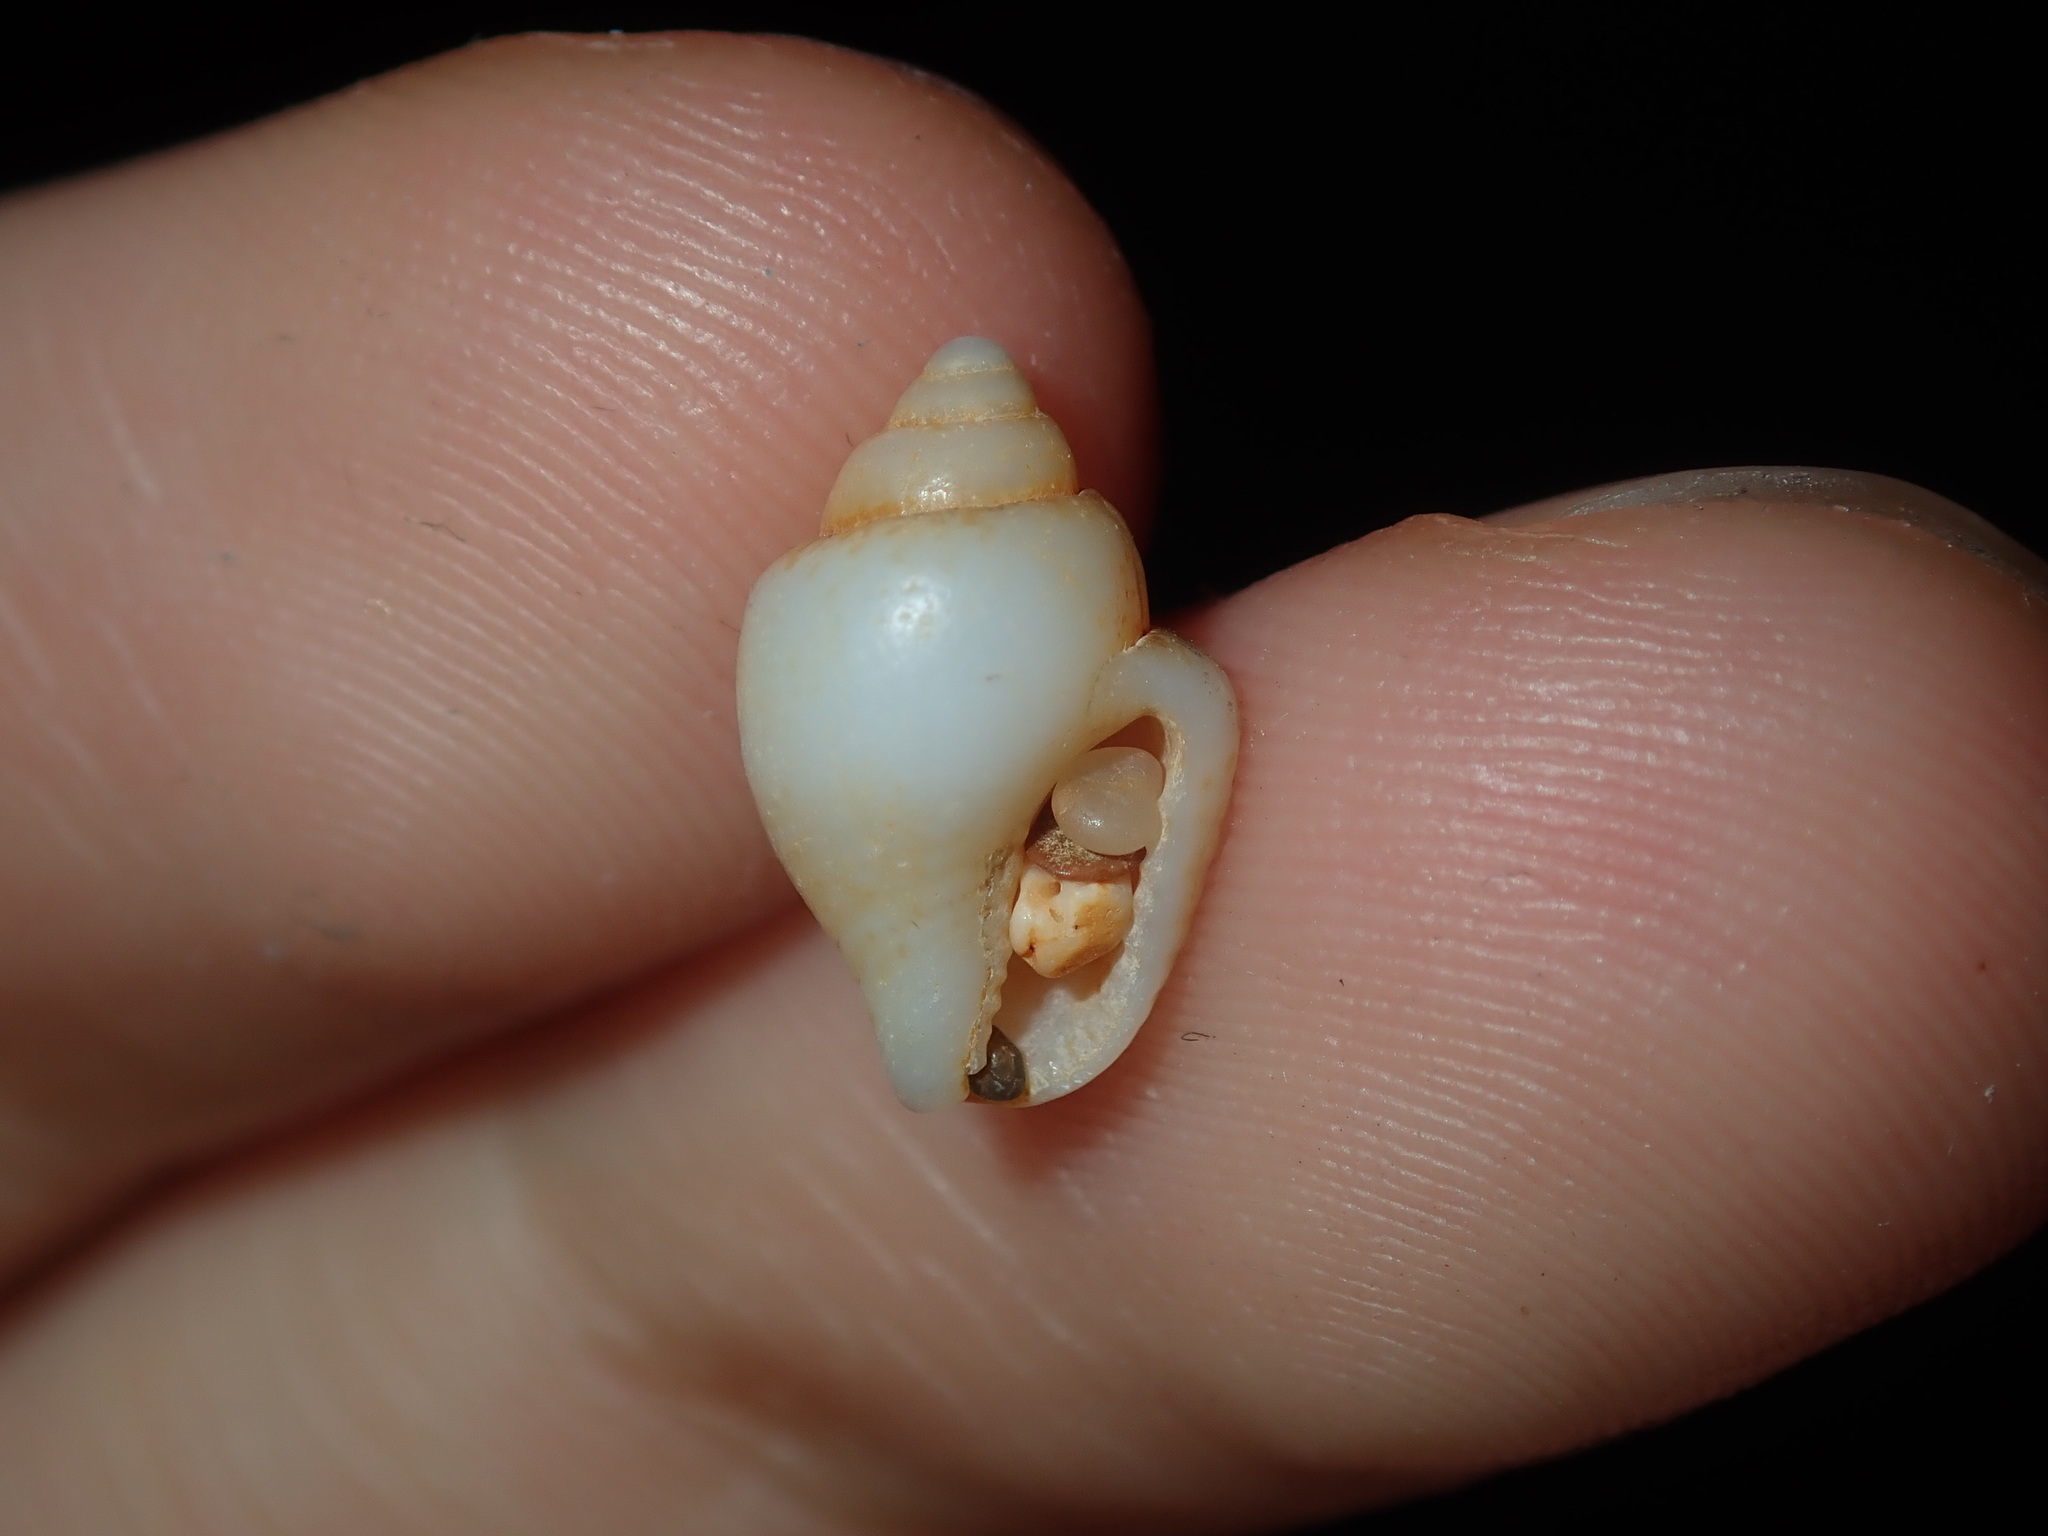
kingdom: Animalia
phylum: Mollusca
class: Gastropoda
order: Neogastropoda
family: Columbellidae
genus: Euplica
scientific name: Euplica scripta
